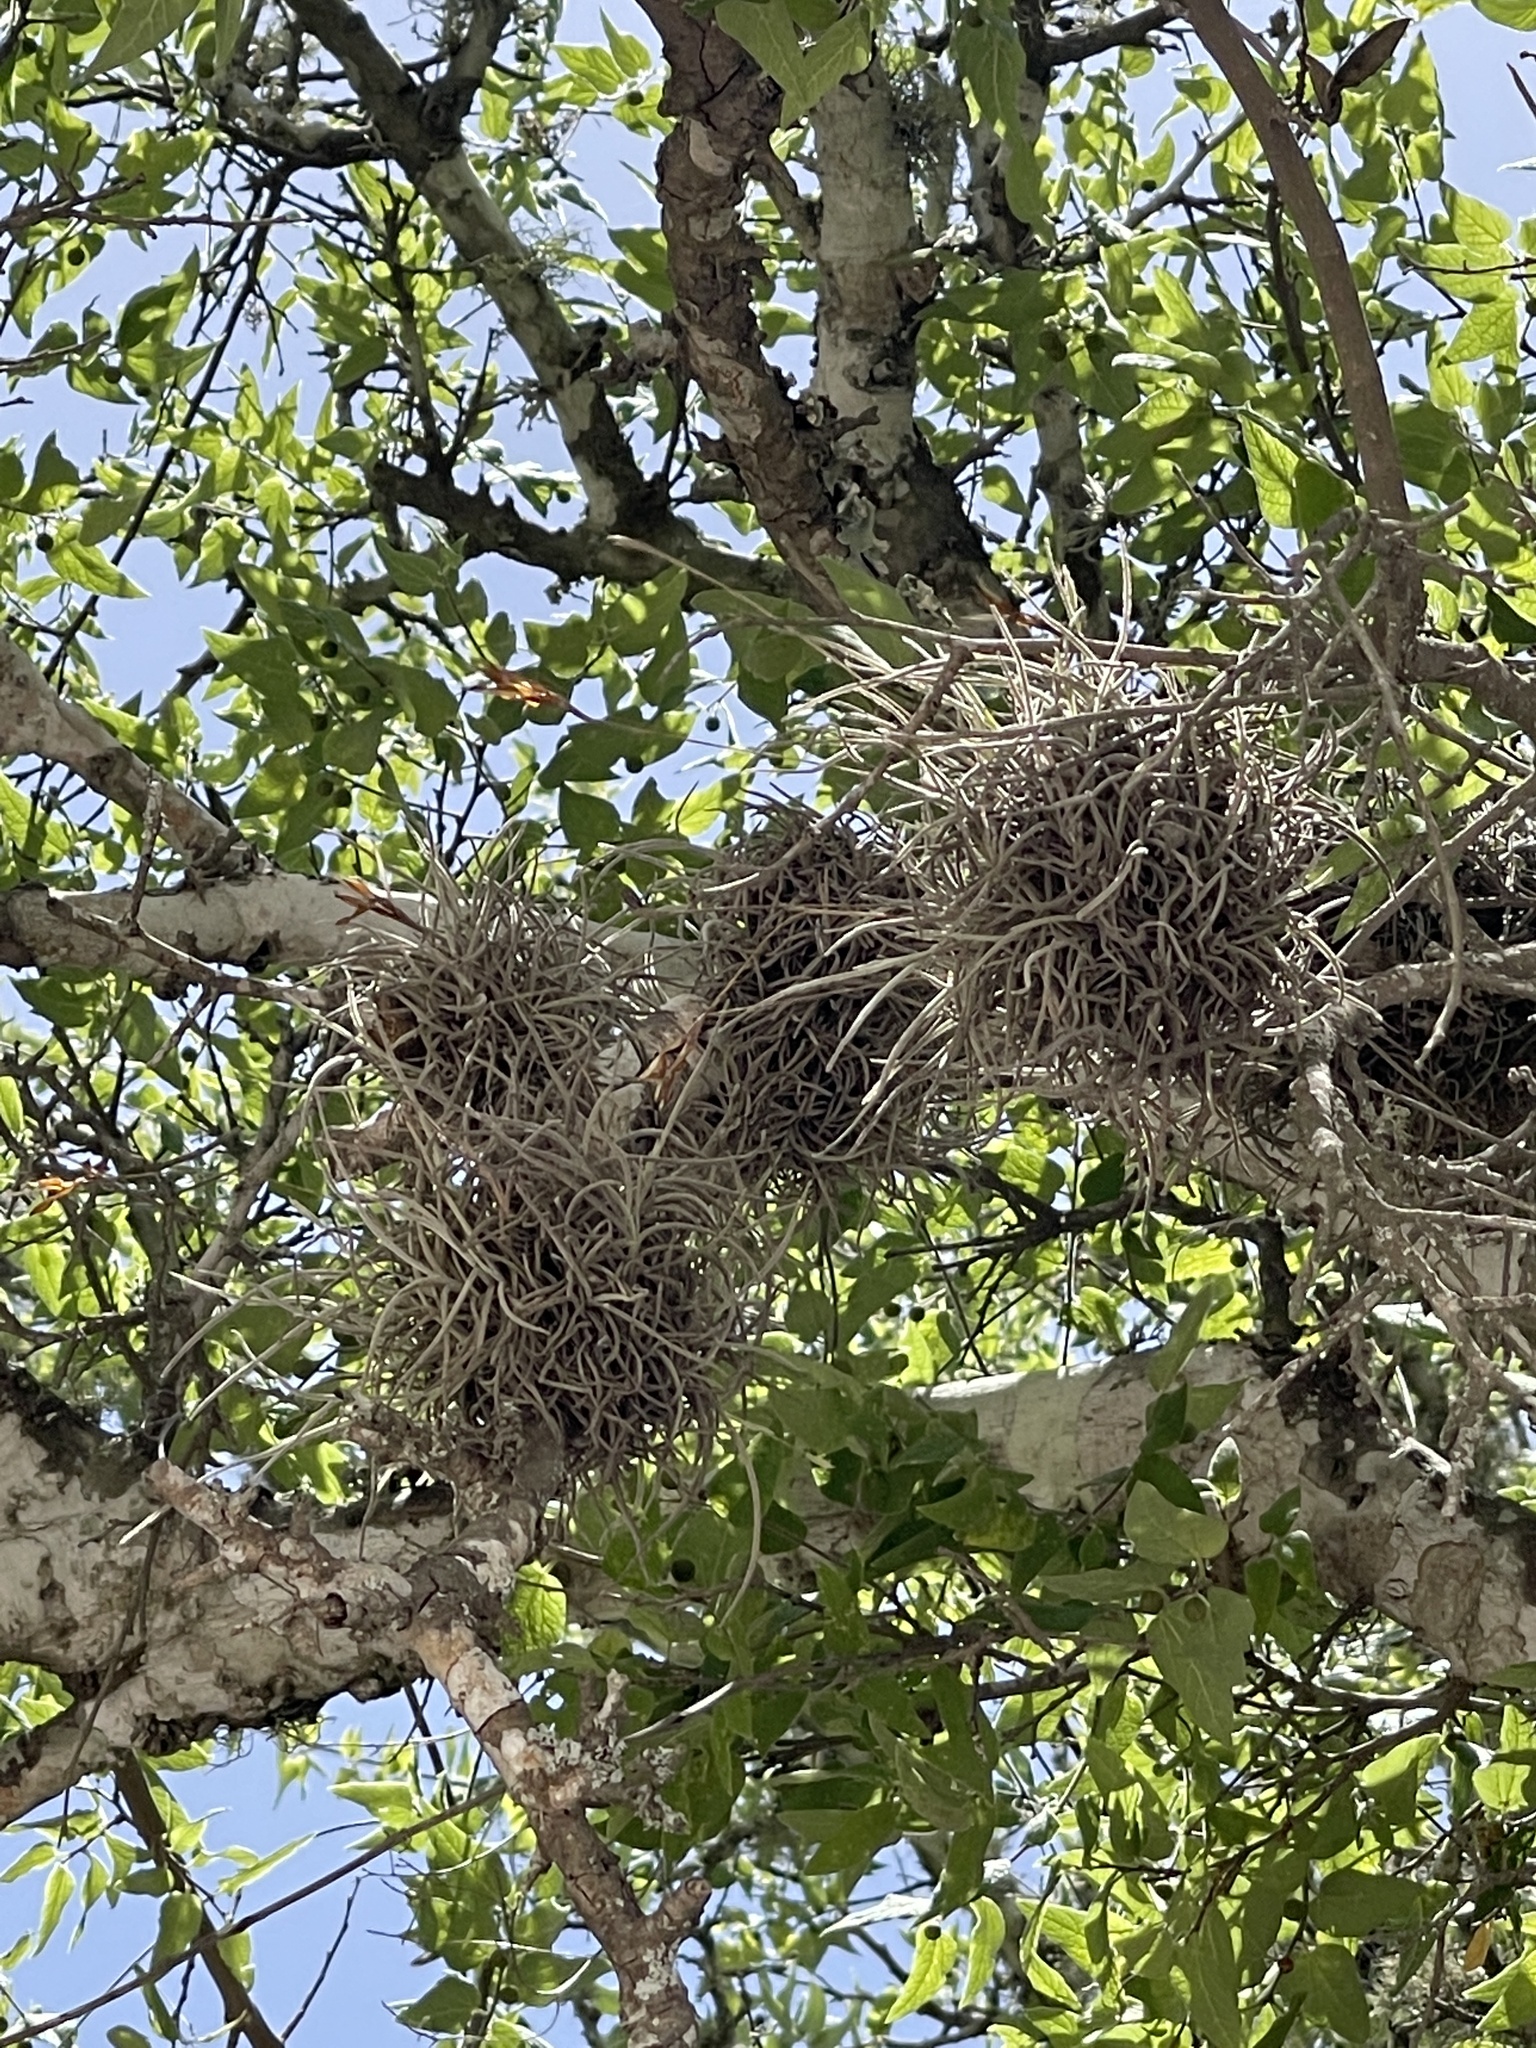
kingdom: Plantae
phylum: Tracheophyta
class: Liliopsida
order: Poales
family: Bromeliaceae
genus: Tillandsia
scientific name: Tillandsia recurvata
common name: Small ballmoss
